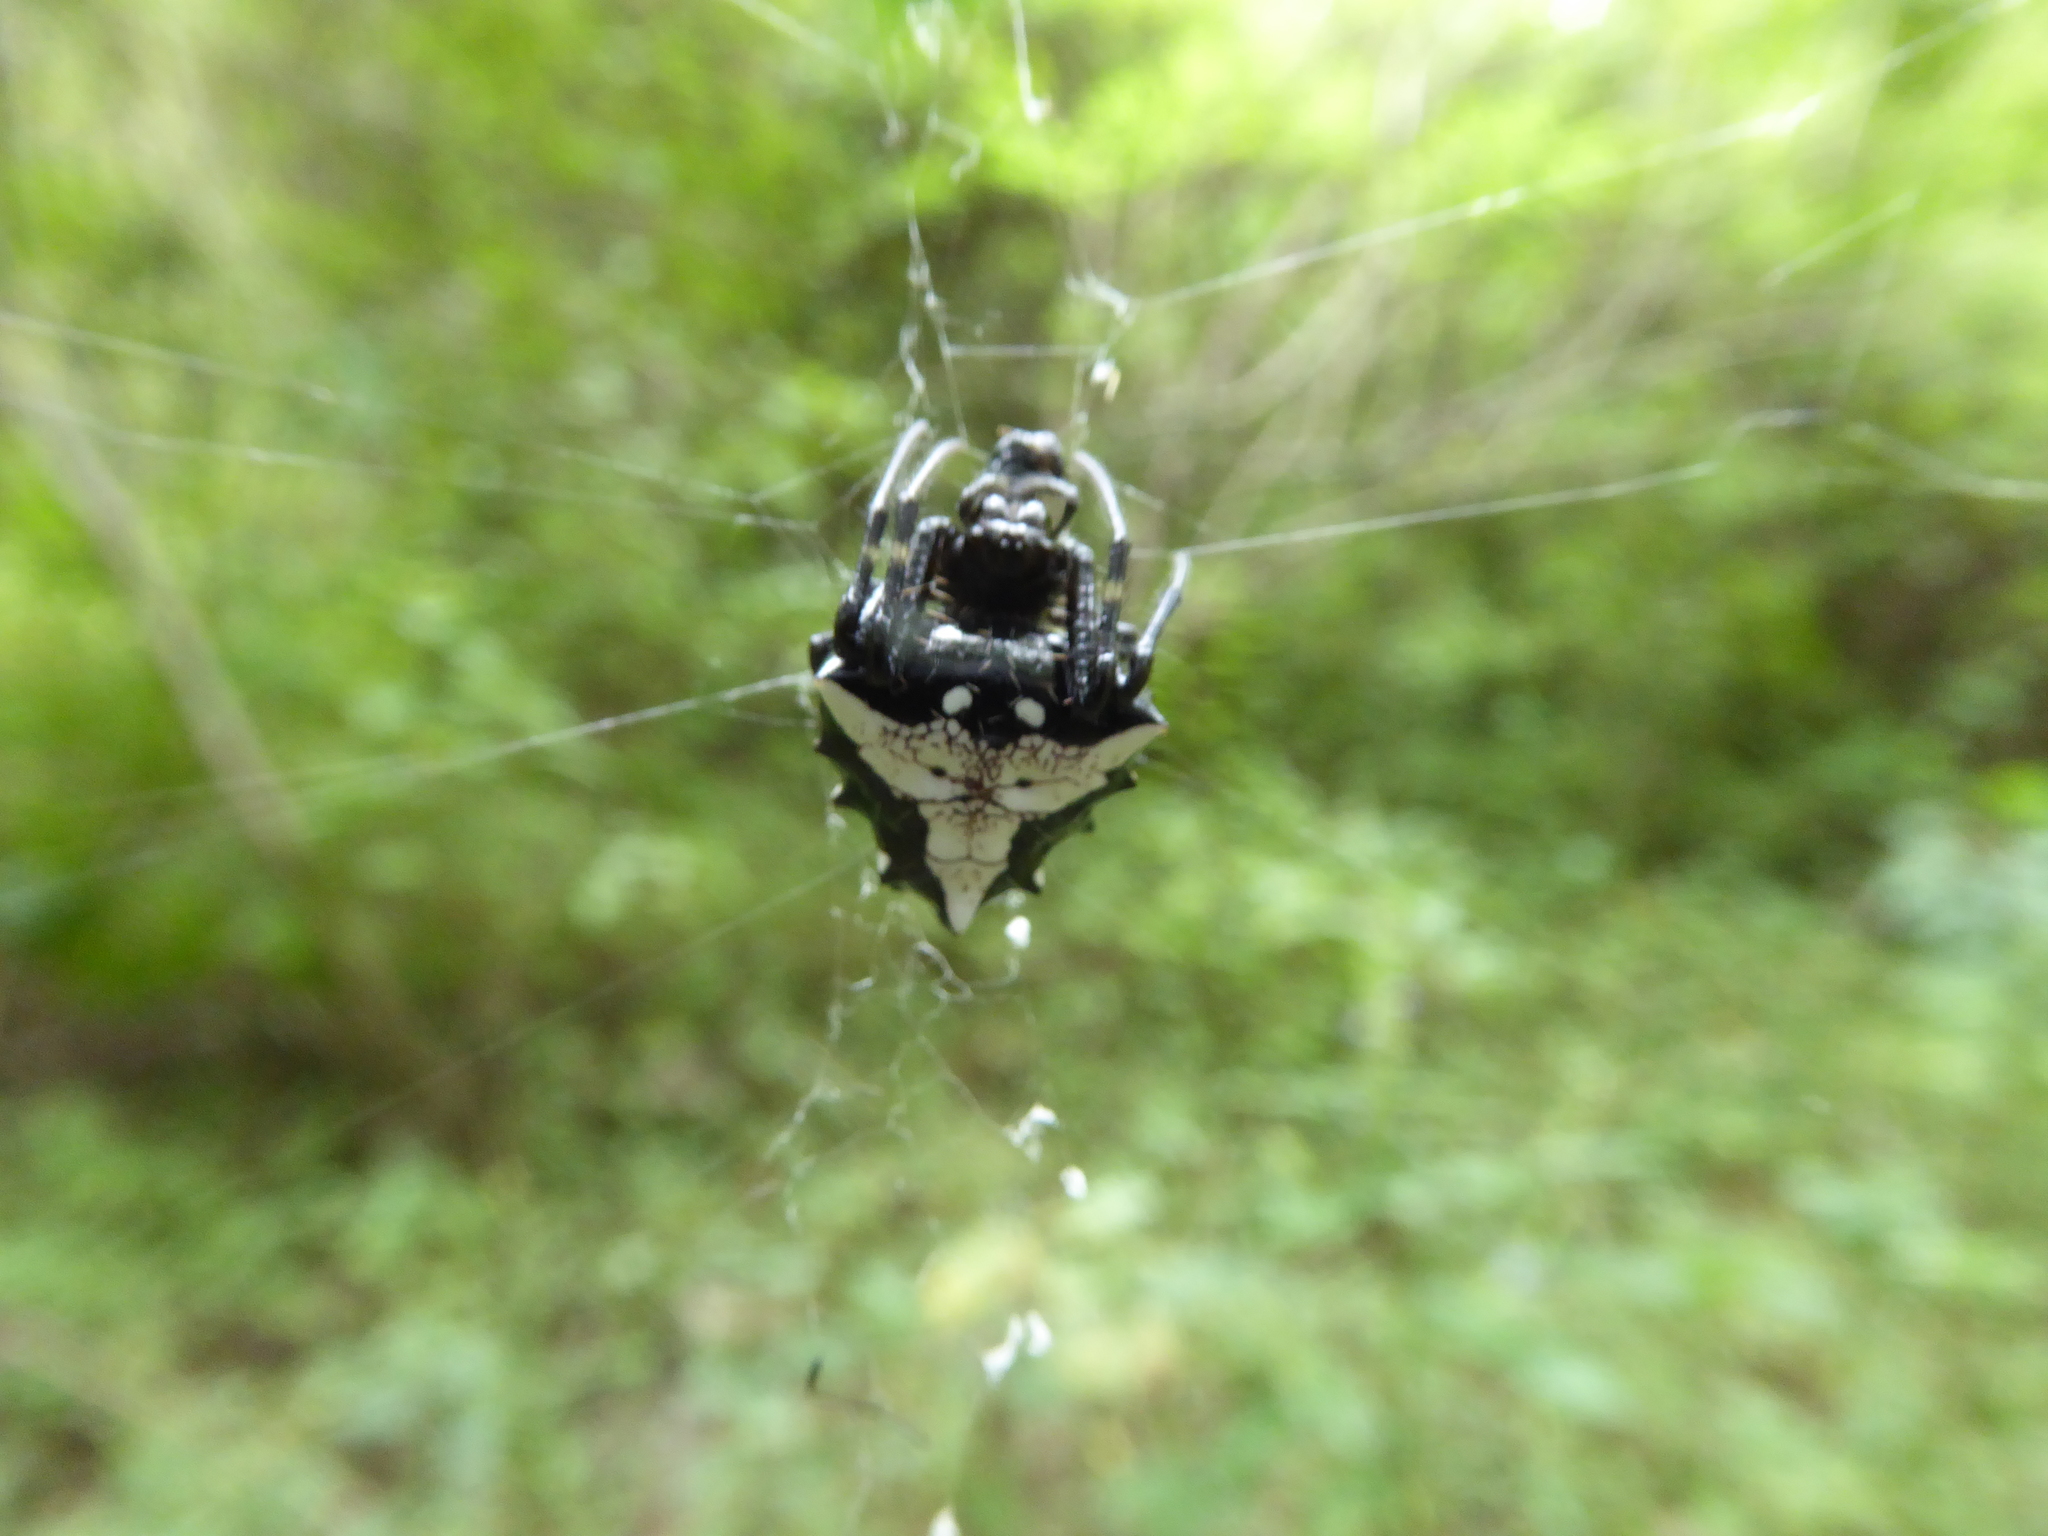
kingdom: Animalia
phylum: Arthropoda
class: Arachnida
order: Araneae
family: Araneidae
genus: Verrucosa
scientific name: Verrucosa arenata
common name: Orb weavers
